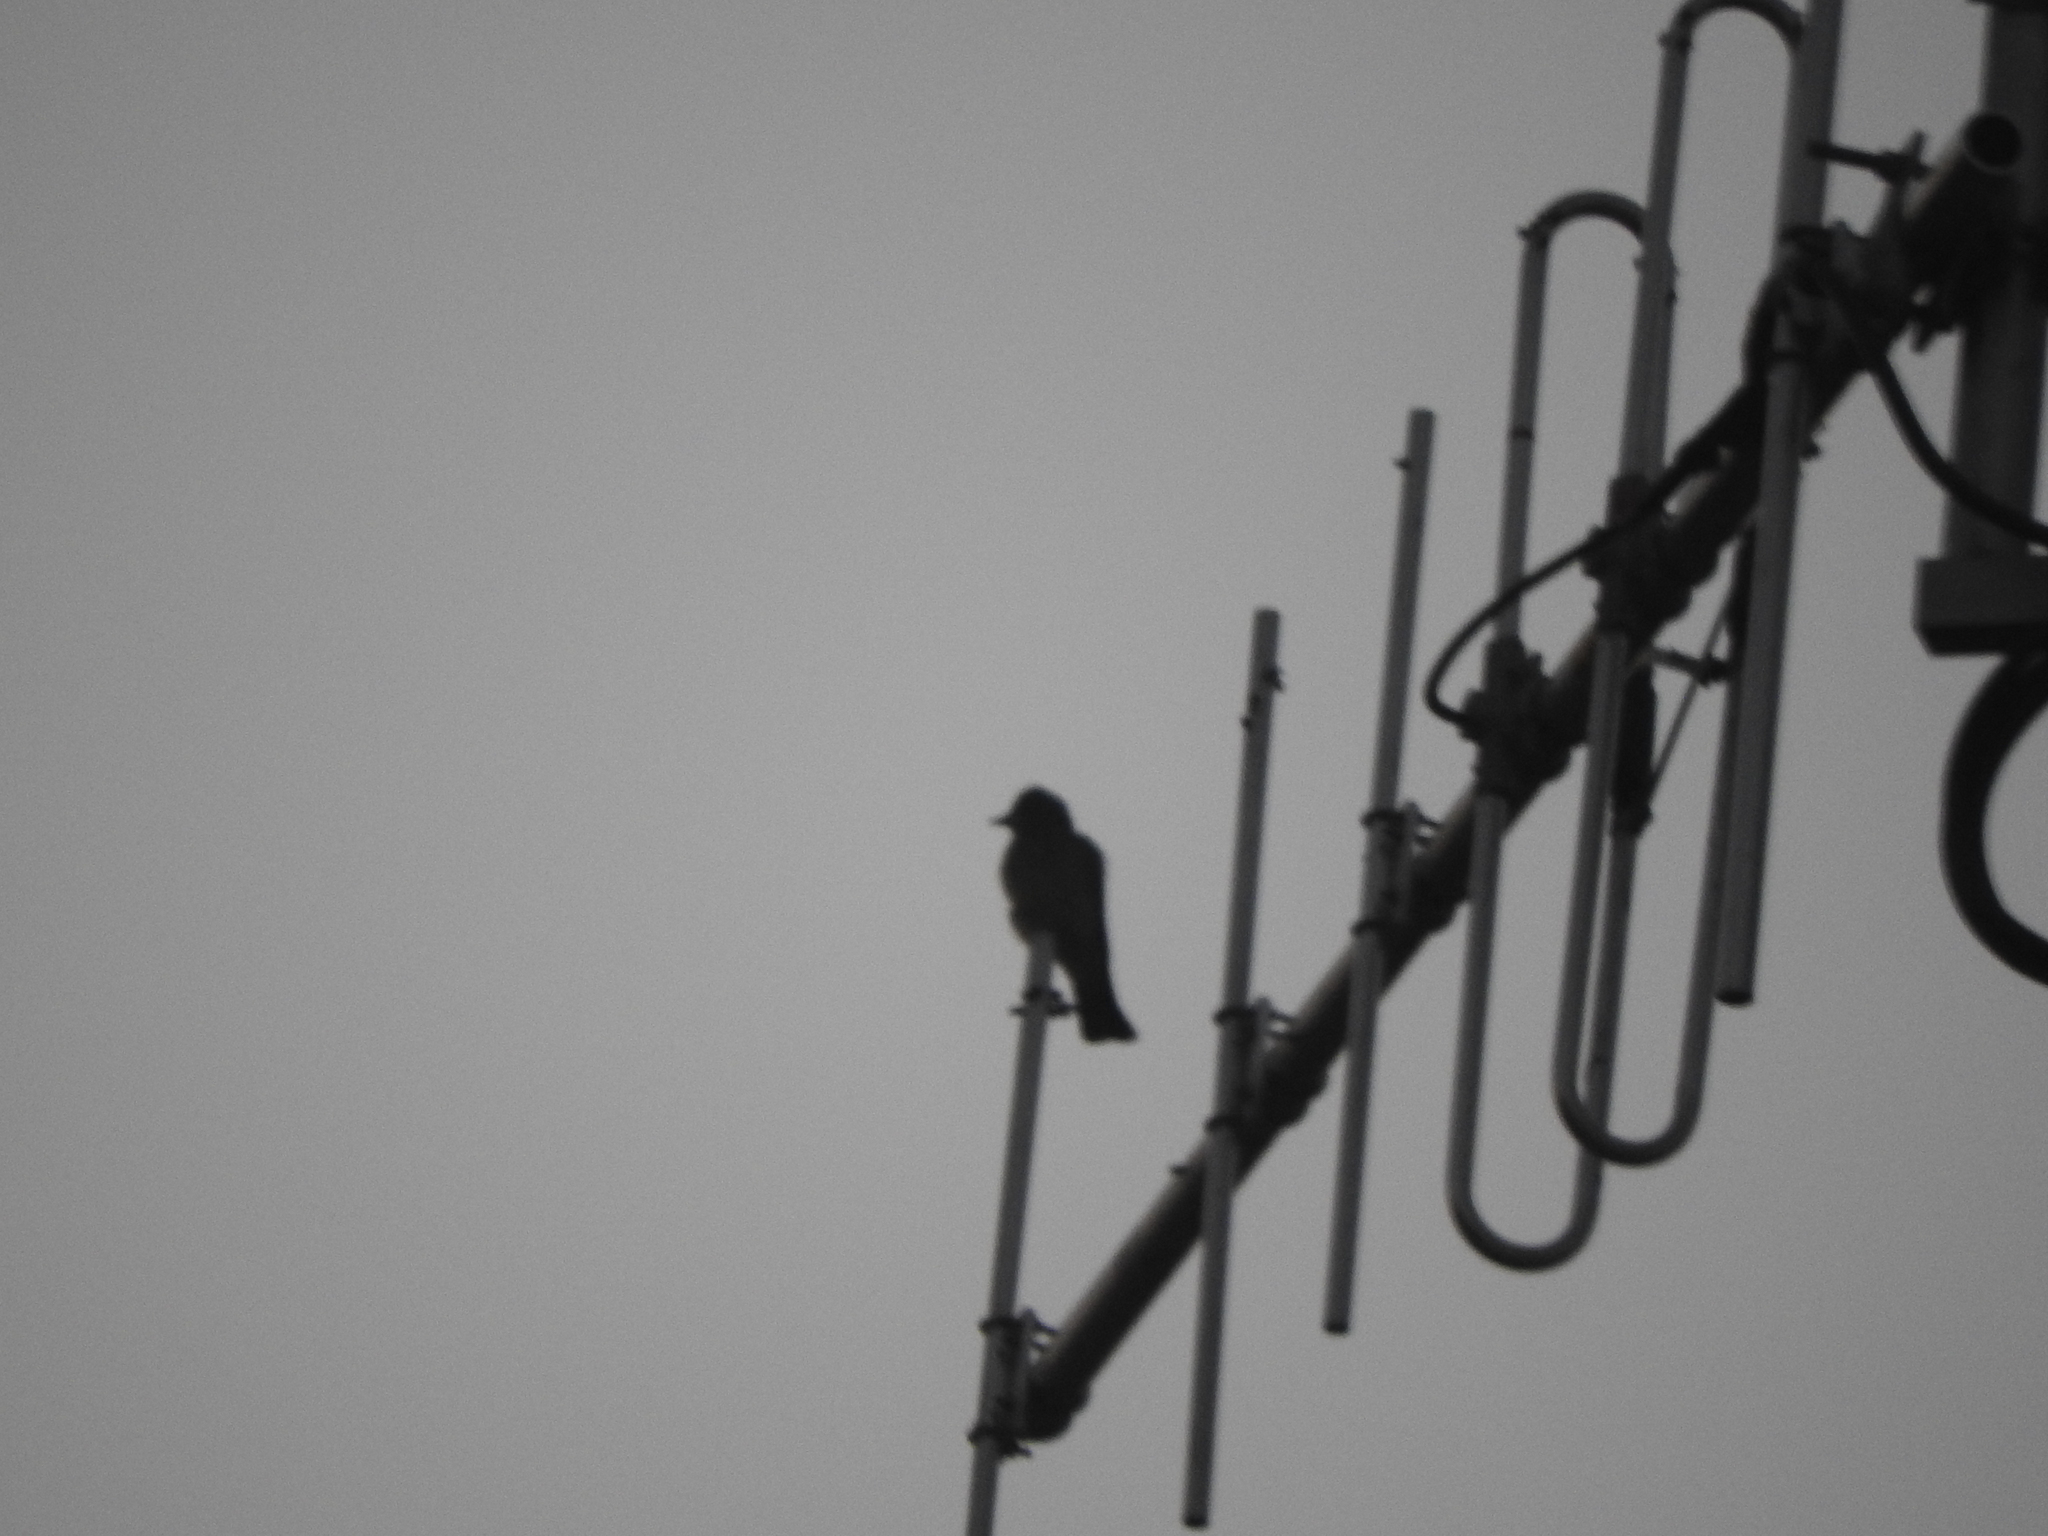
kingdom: Animalia
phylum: Chordata
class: Aves
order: Passeriformes
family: Tyrannidae
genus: Tyrannus
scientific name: Tyrannus vociferans
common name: Cassin's kingbird
